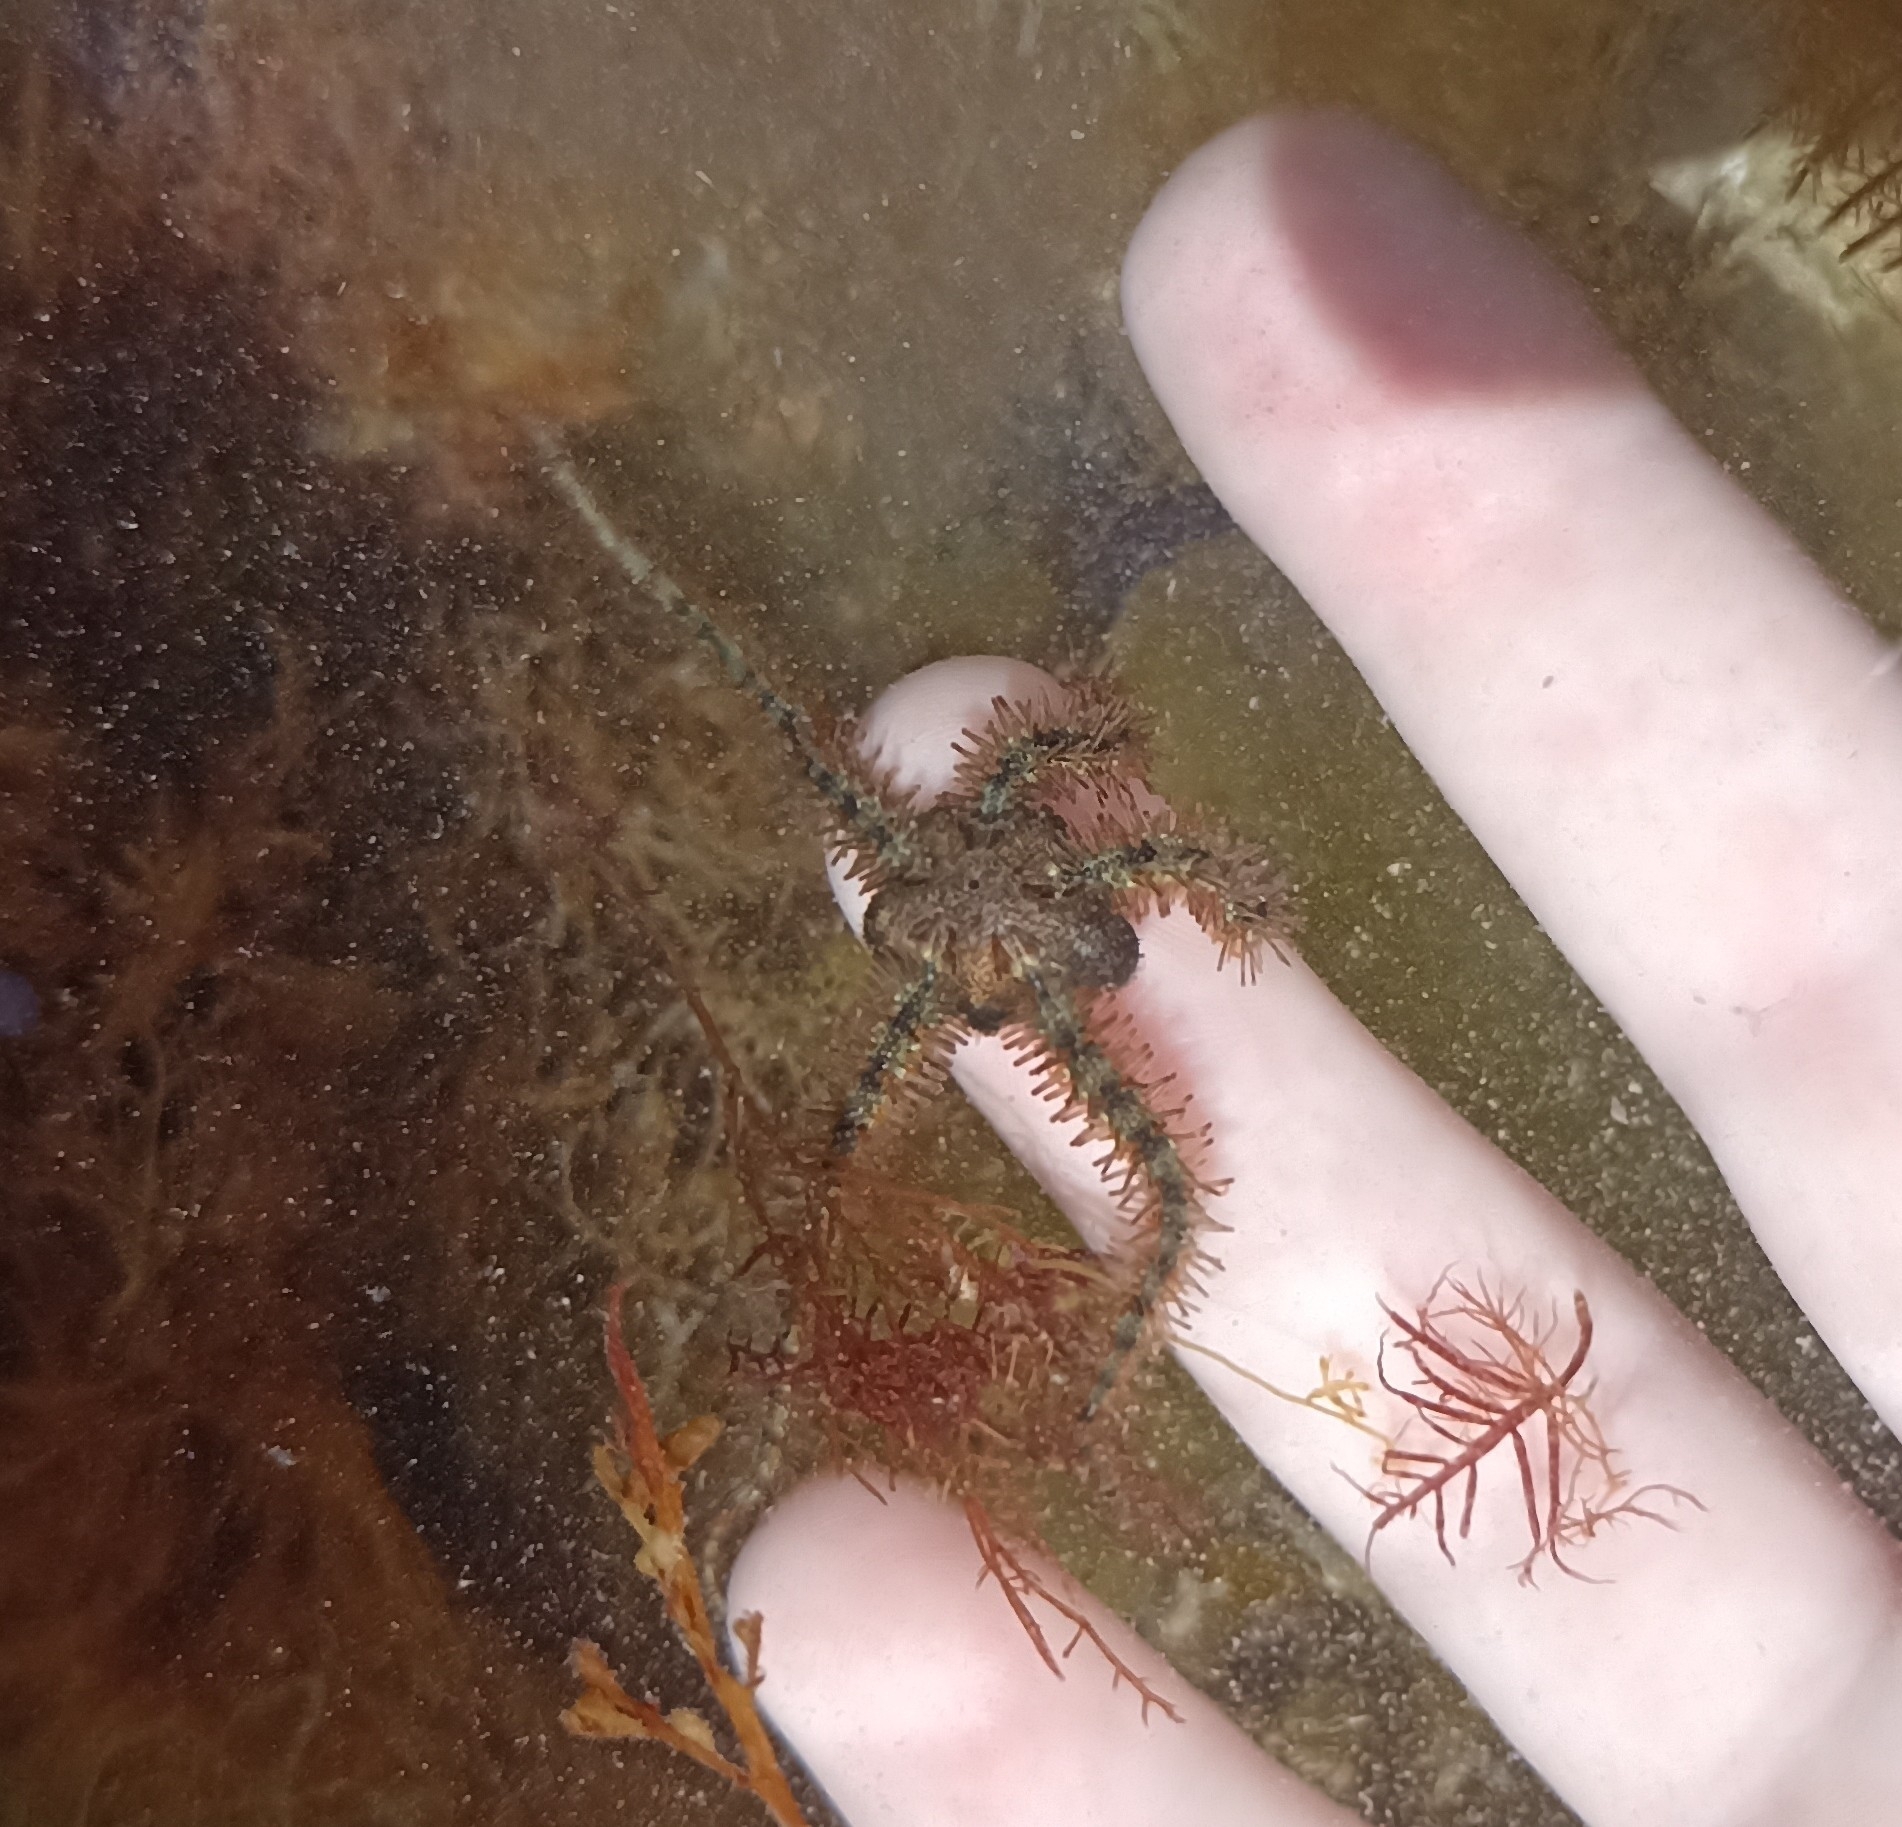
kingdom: Animalia
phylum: Echinodermata
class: Ophiuroidea
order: Amphilepidida
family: Ophiotrichidae
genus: Ophiothrix
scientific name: Ophiothrix fragilis
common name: Common brittlestar
